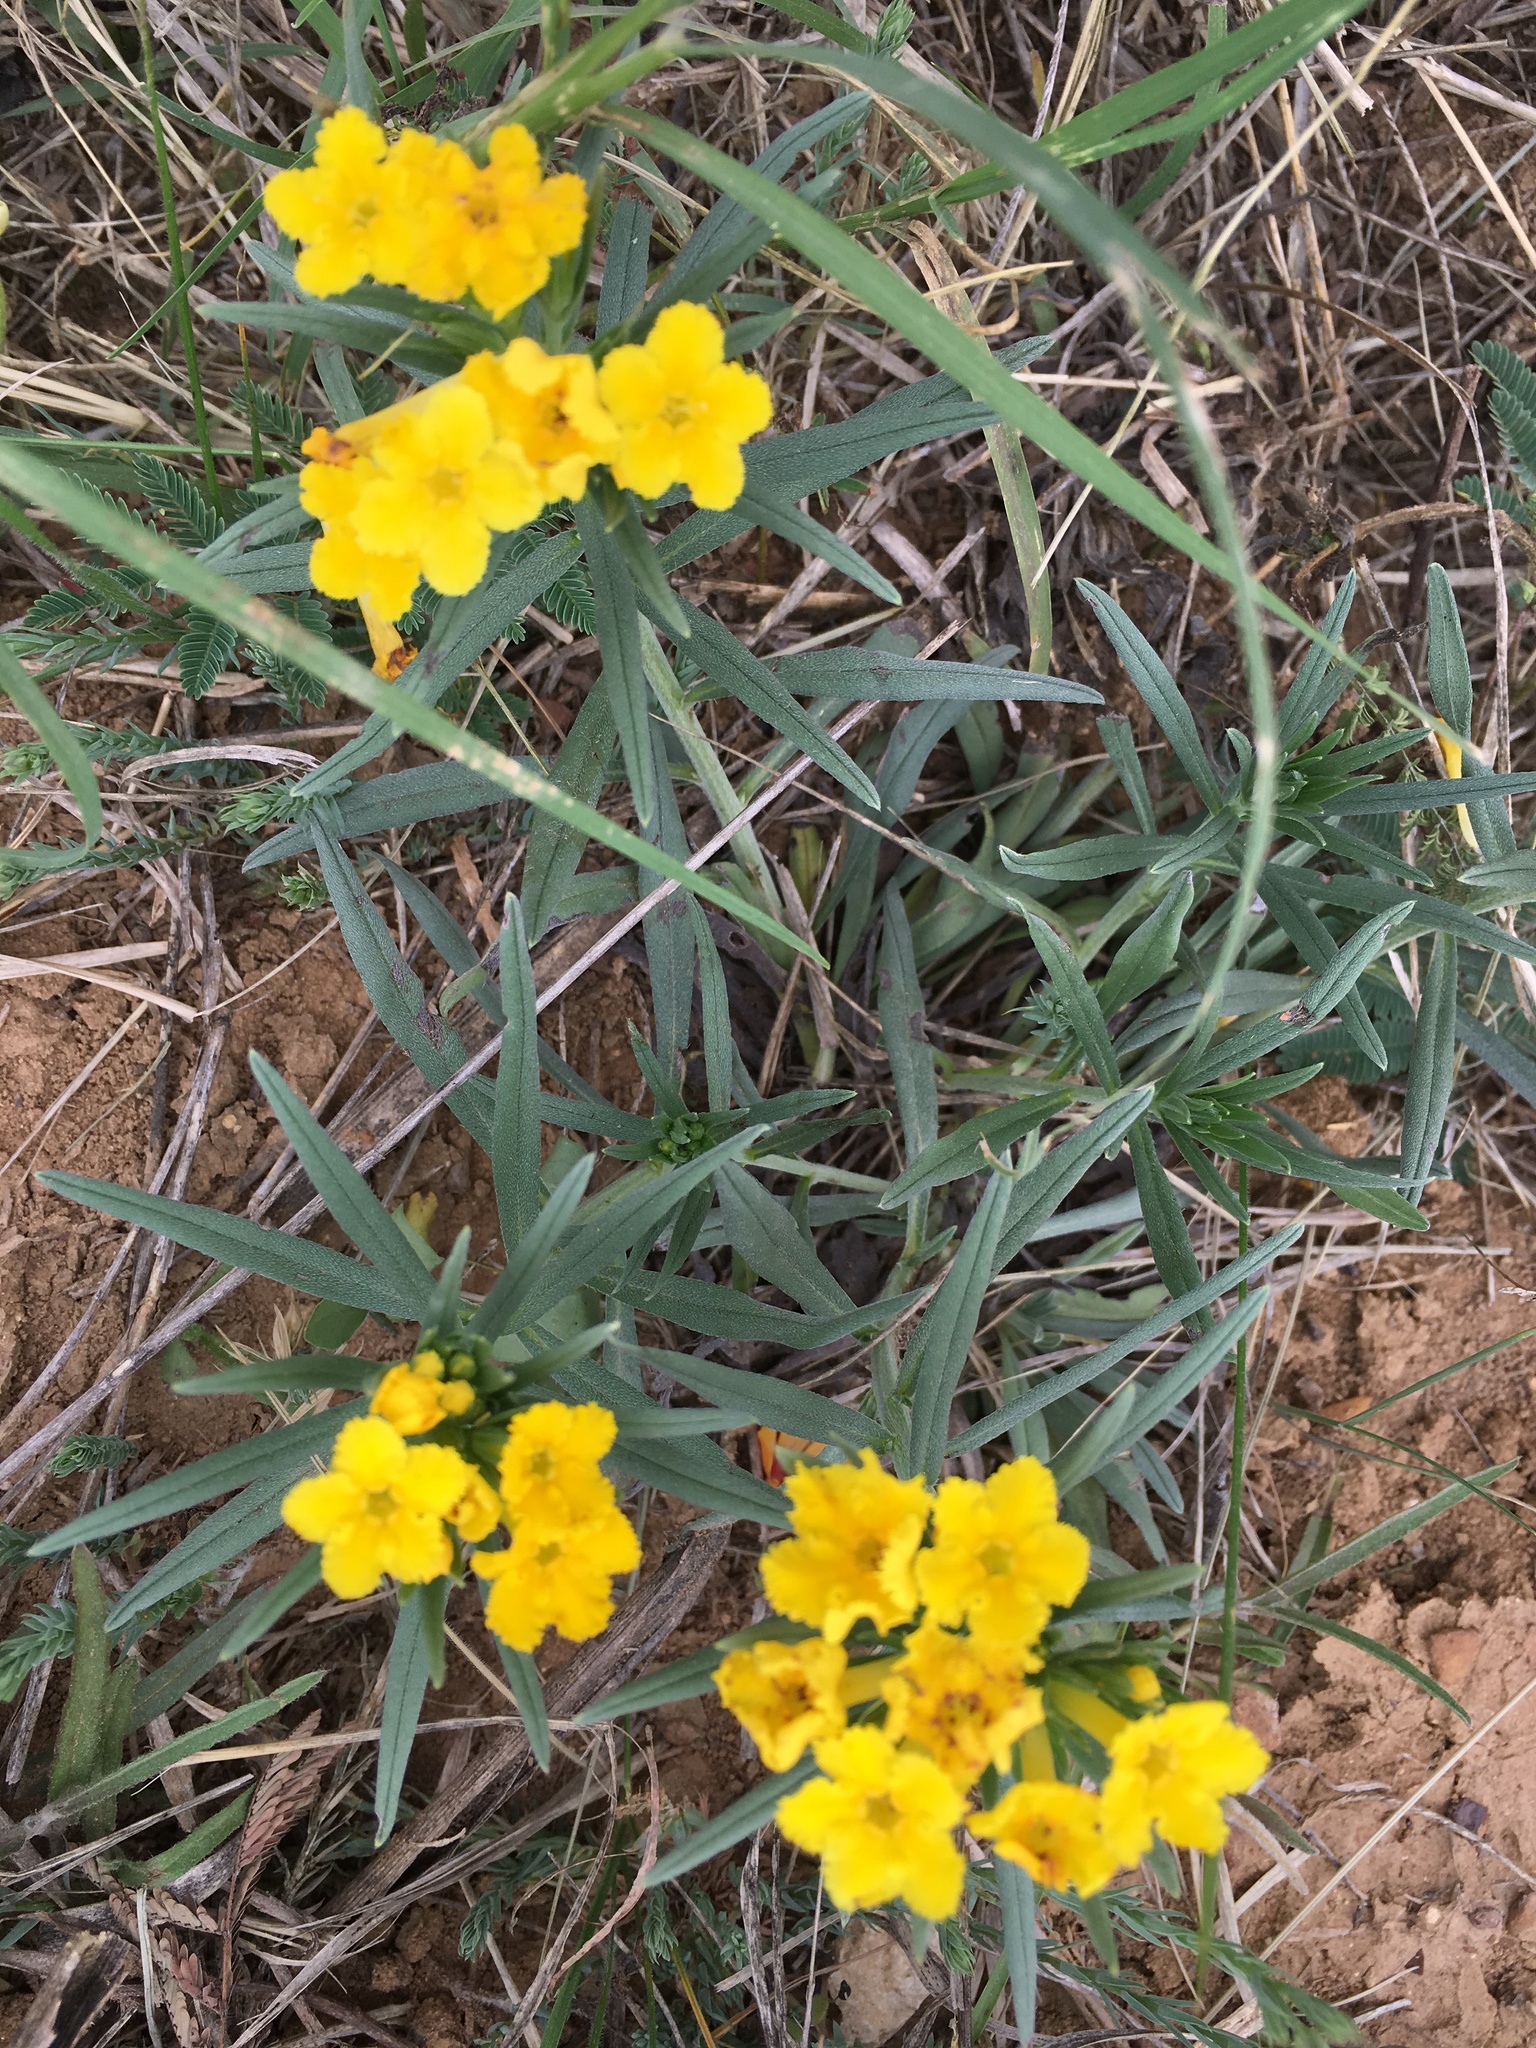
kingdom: Plantae
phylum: Tracheophyta
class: Magnoliopsida
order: Boraginales
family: Boraginaceae
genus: Lithospermum
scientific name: Lithospermum incisum
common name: Fringed gromwell
